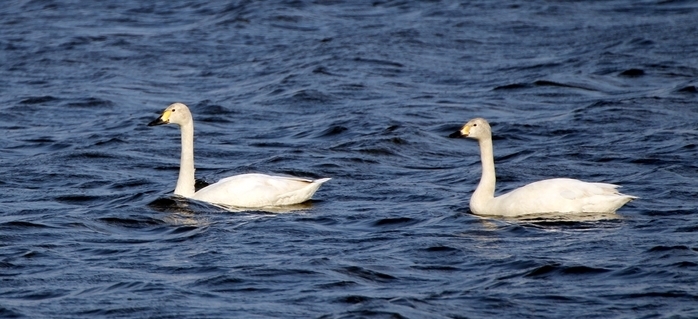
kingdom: Animalia
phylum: Chordata
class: Aves
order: Anseriformes
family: Anatidae
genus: Cygnus
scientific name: Cygnus columbianus
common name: Tundra swan
